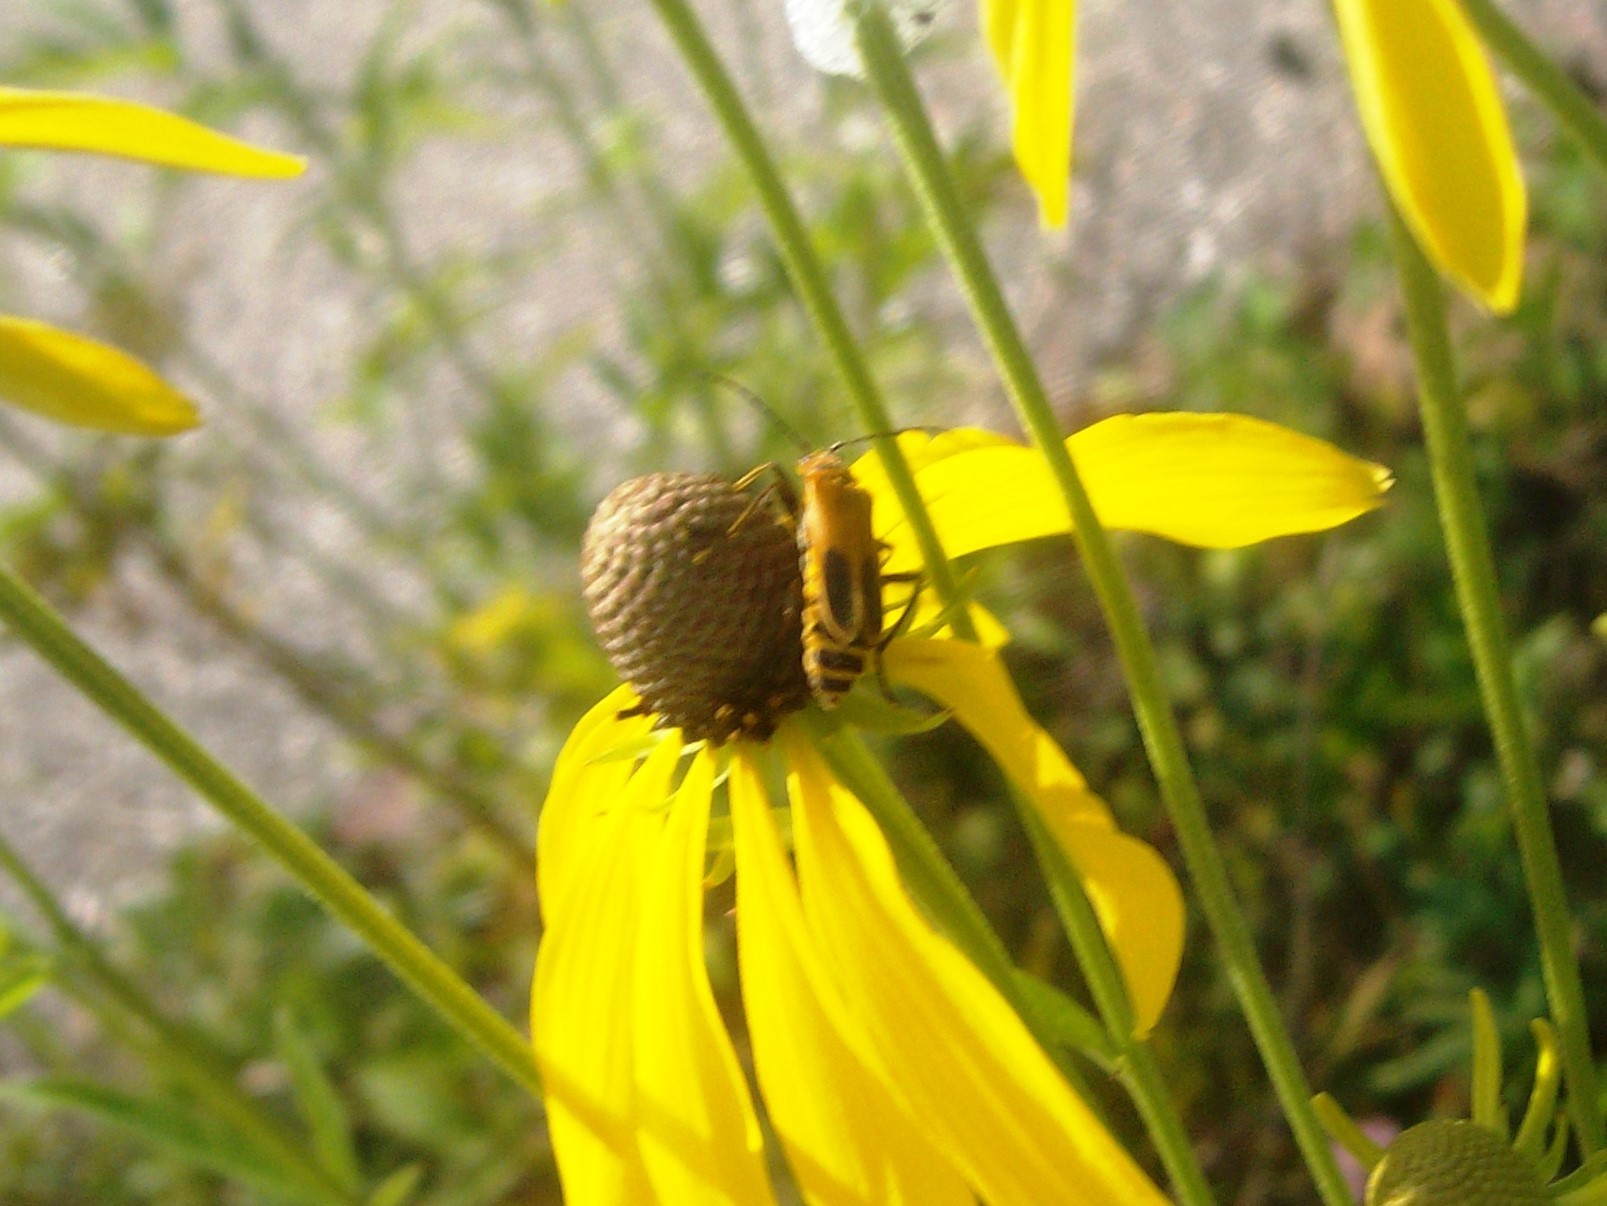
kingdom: Animalia
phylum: Arthropoda
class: Insecta
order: Coleoptera
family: Cantharidae
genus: Chauliognathus
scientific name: Chauliognathus pensylvanicus
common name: Goldenrod soldier beetle
